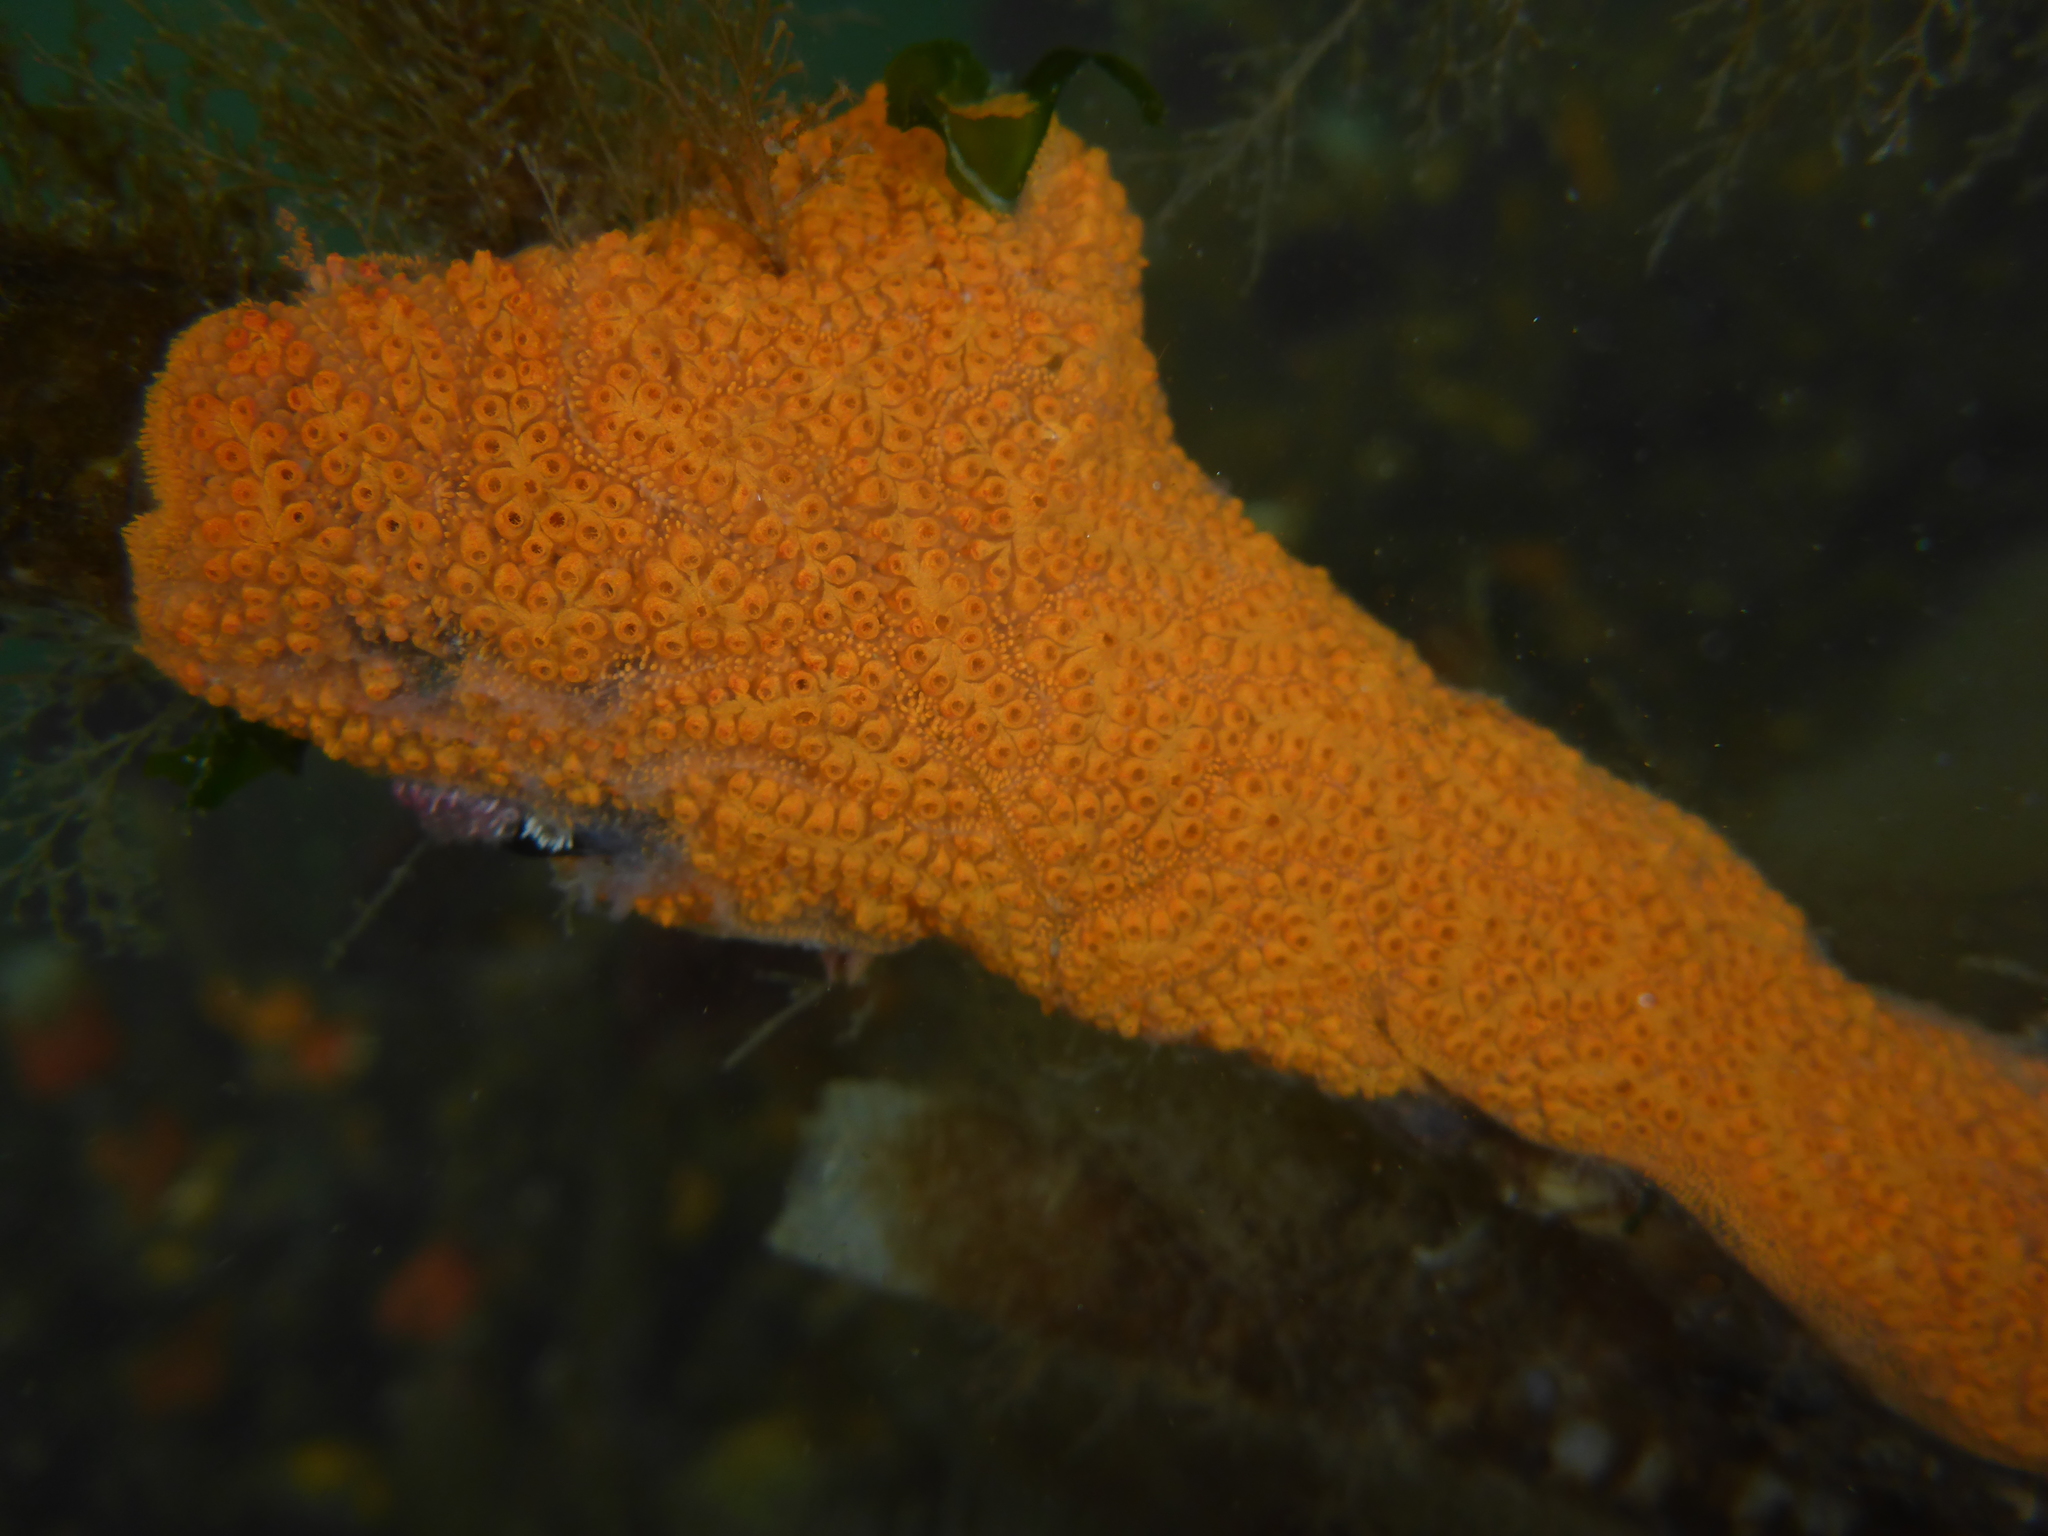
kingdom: Animalia
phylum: Chordata
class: Ascidiacea
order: Stolidobranchia
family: Styelidae
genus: Botrylloides
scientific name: Botrylloides violaceus
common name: Colonial sea squirt
